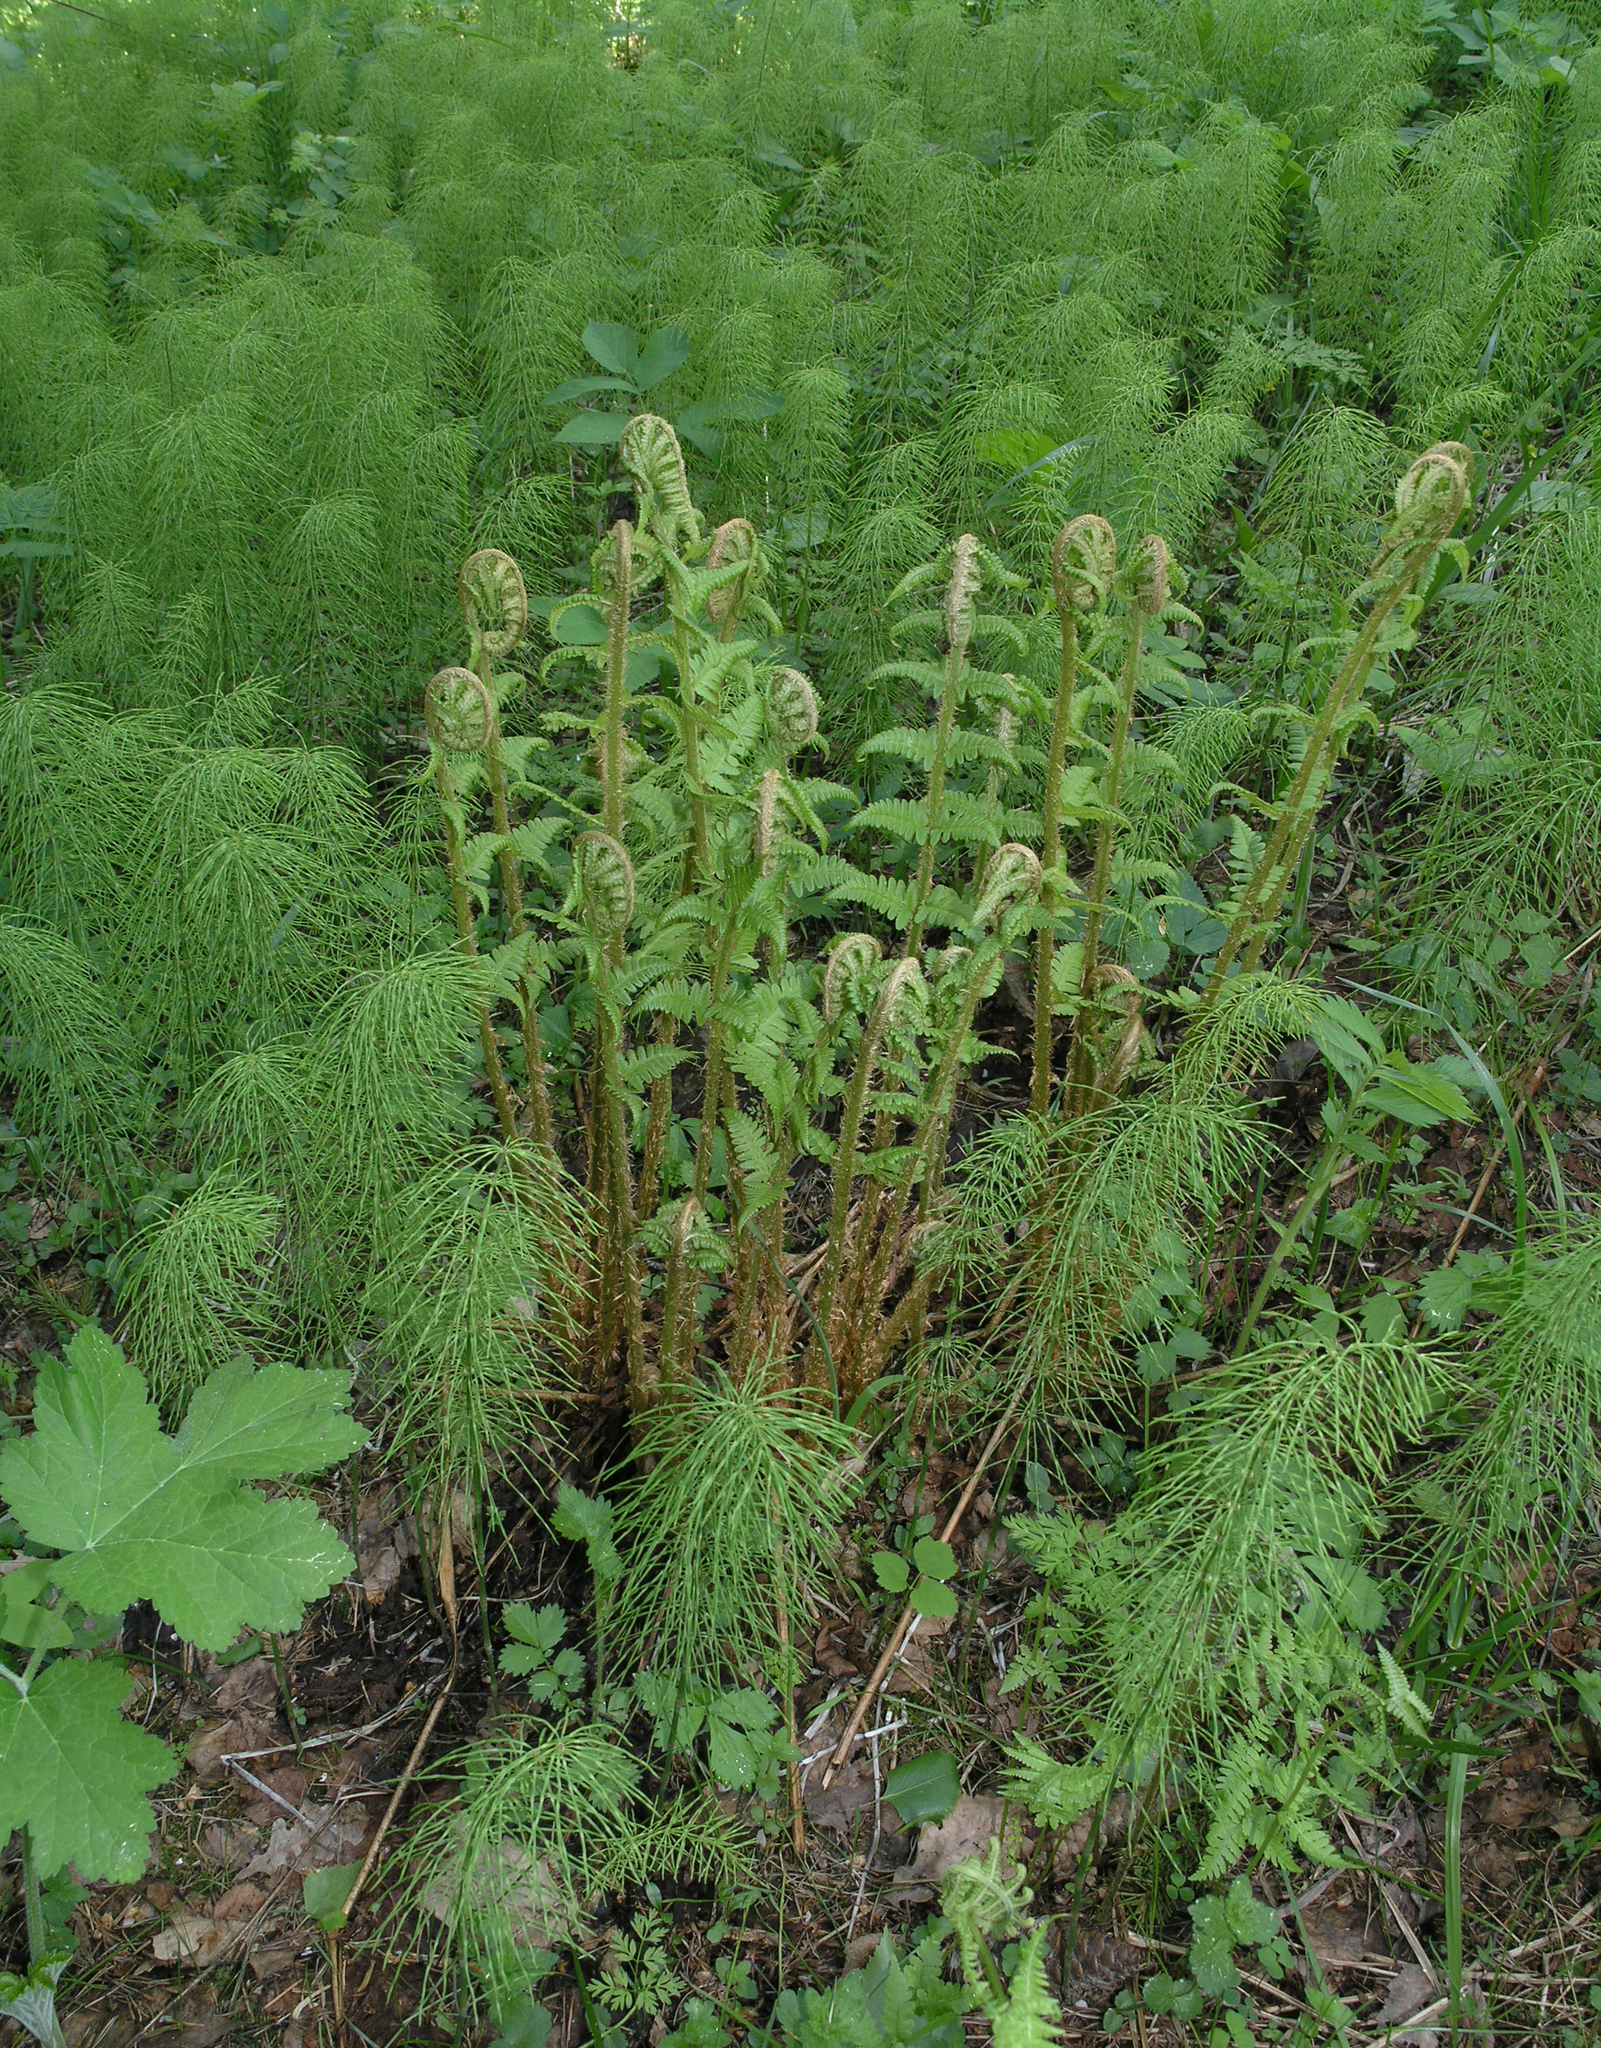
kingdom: Plantae
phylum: Tracheophyta
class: Polypodiopsida
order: Polypodiales
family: Dryopteridaceae
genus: Dryopteris
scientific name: Dryopteris filix-mas
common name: Male fern
